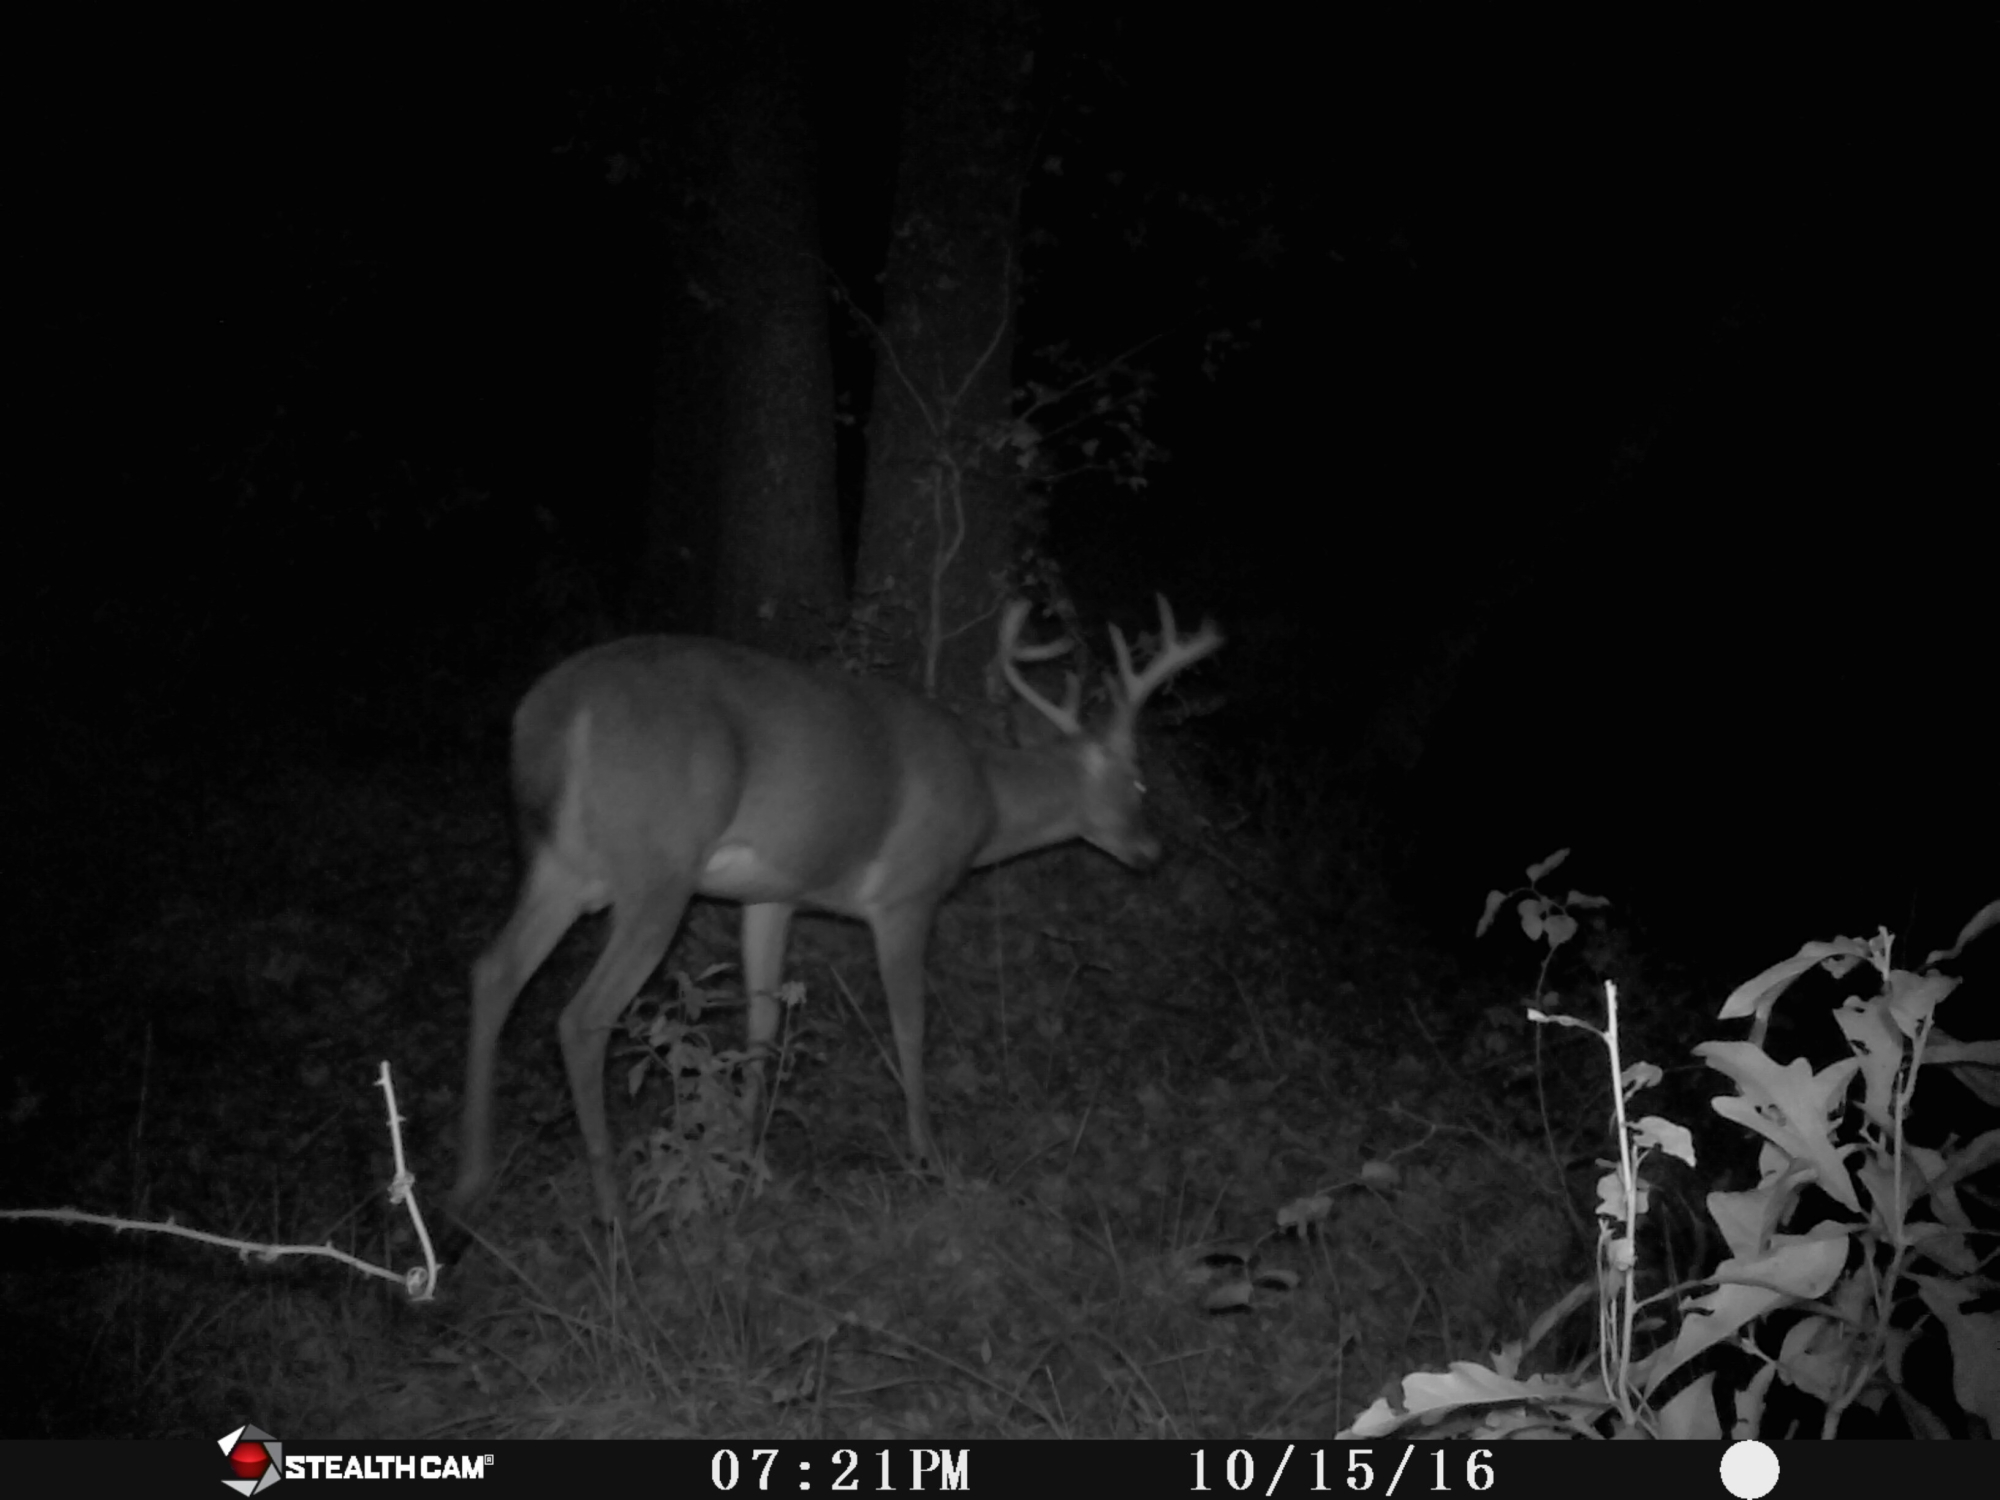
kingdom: Animalia
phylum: Chordata
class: Mammalia
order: Artiodactyla
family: Cervidae
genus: Odocoileus
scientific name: Odocoileus virginianus
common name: White-tailed deer
